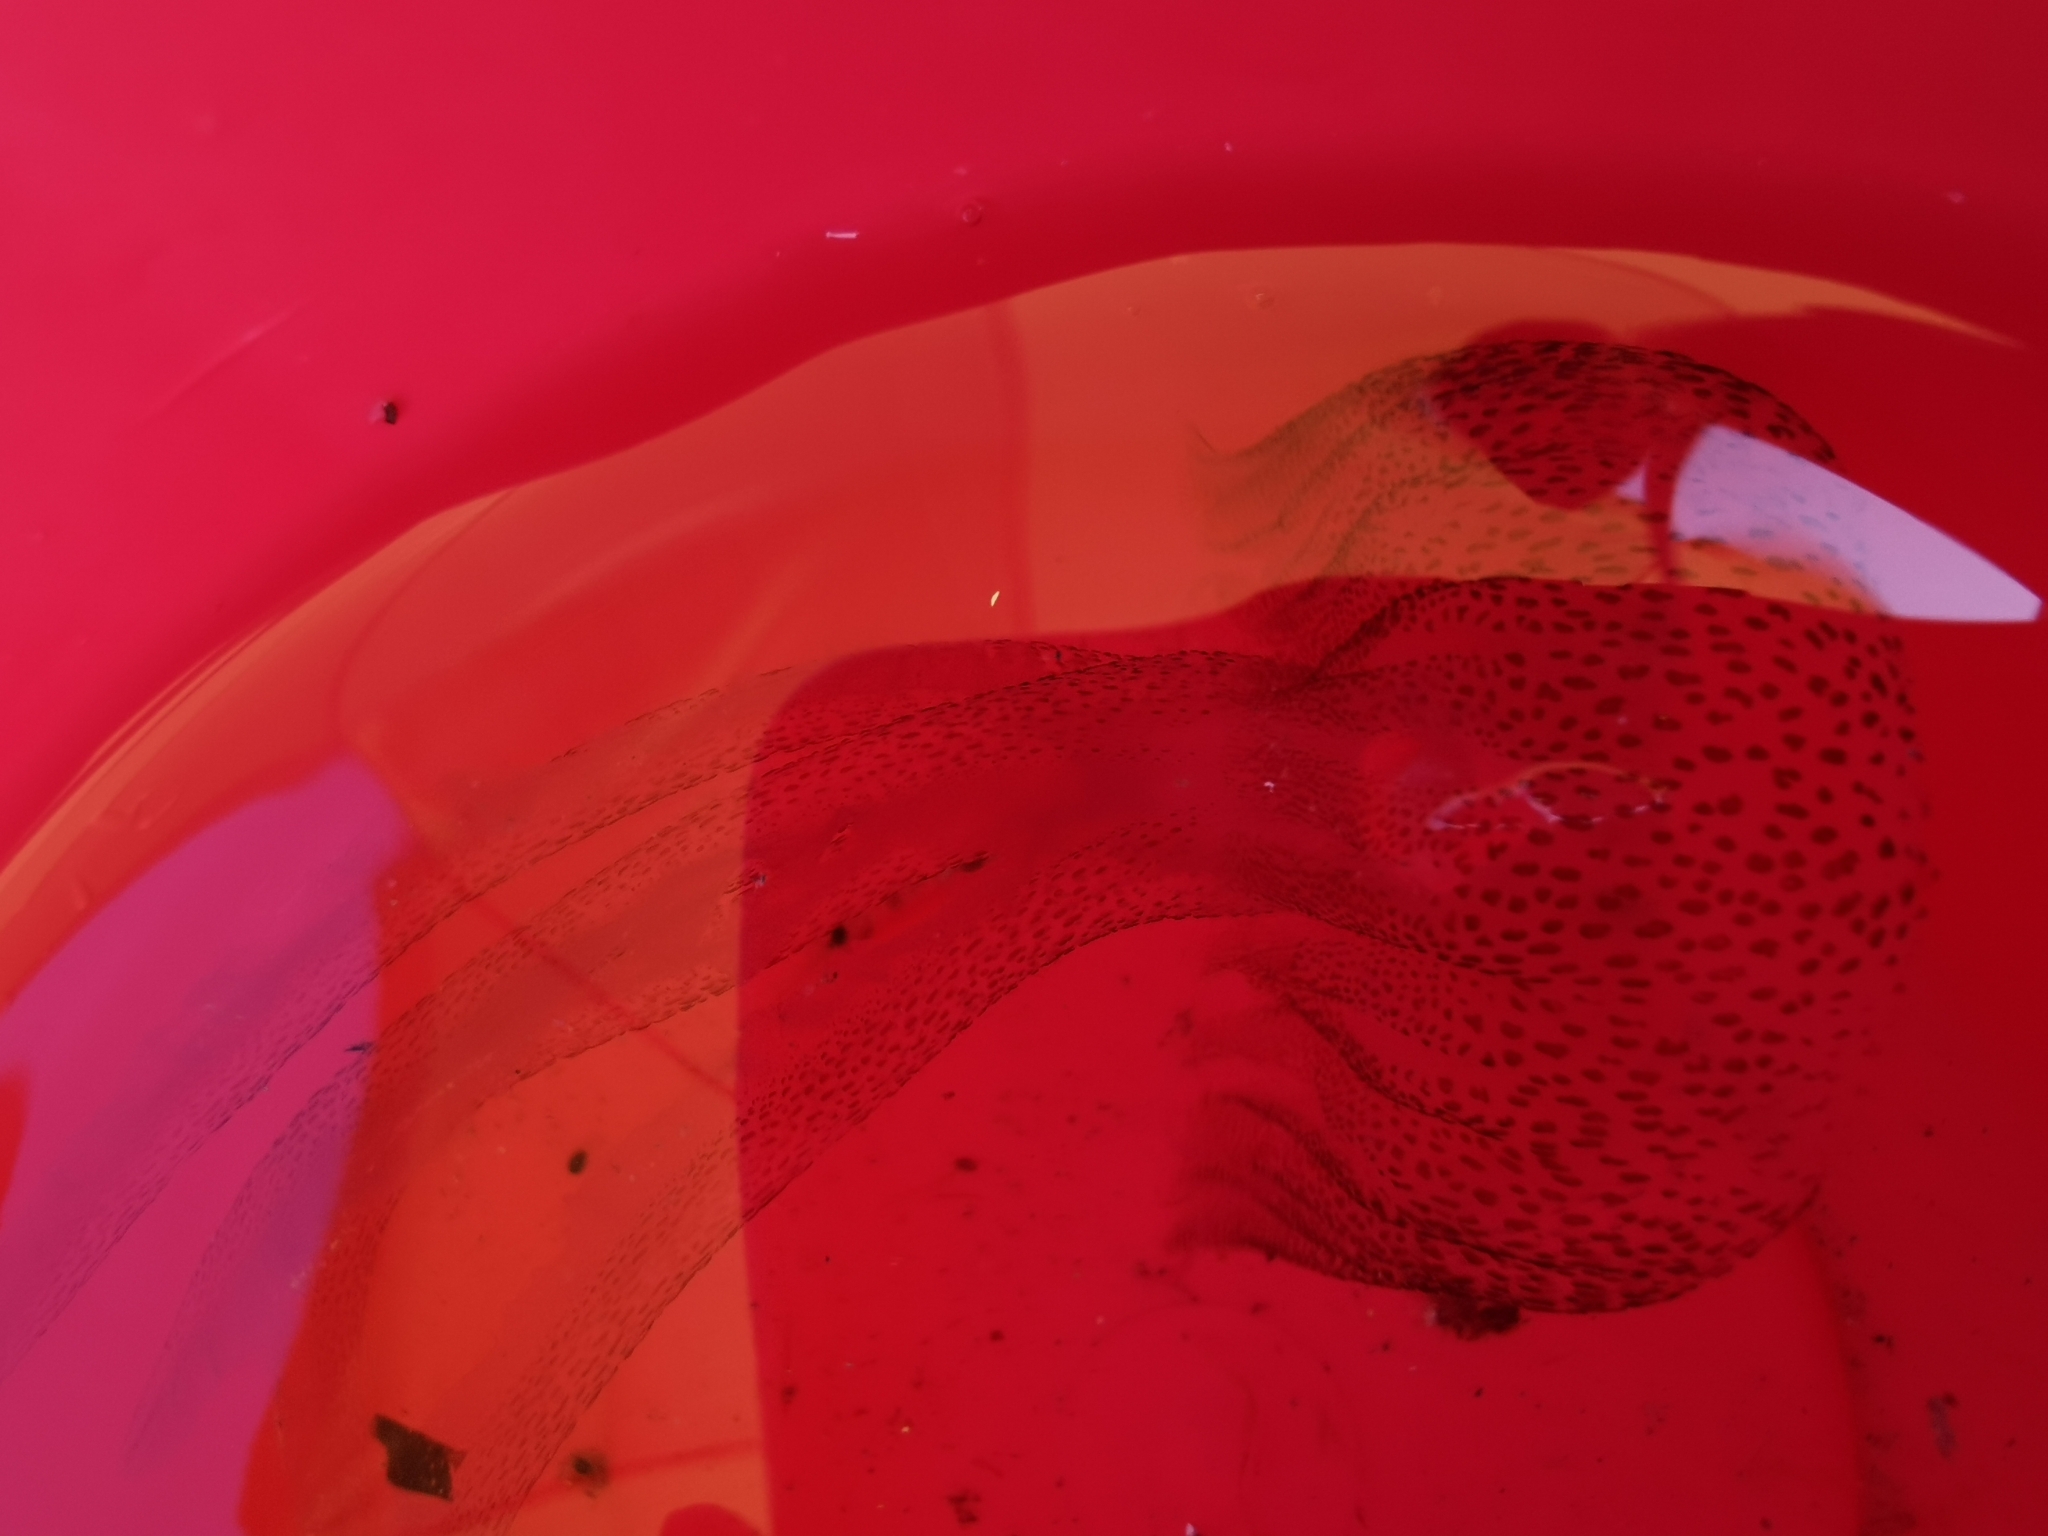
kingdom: Animalia
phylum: Cnidaria
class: Scyphozoa
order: Semaeostomeae
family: Pelagiidae
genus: Pelagia
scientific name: Pelagia noctiluca
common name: Mauve stinger
